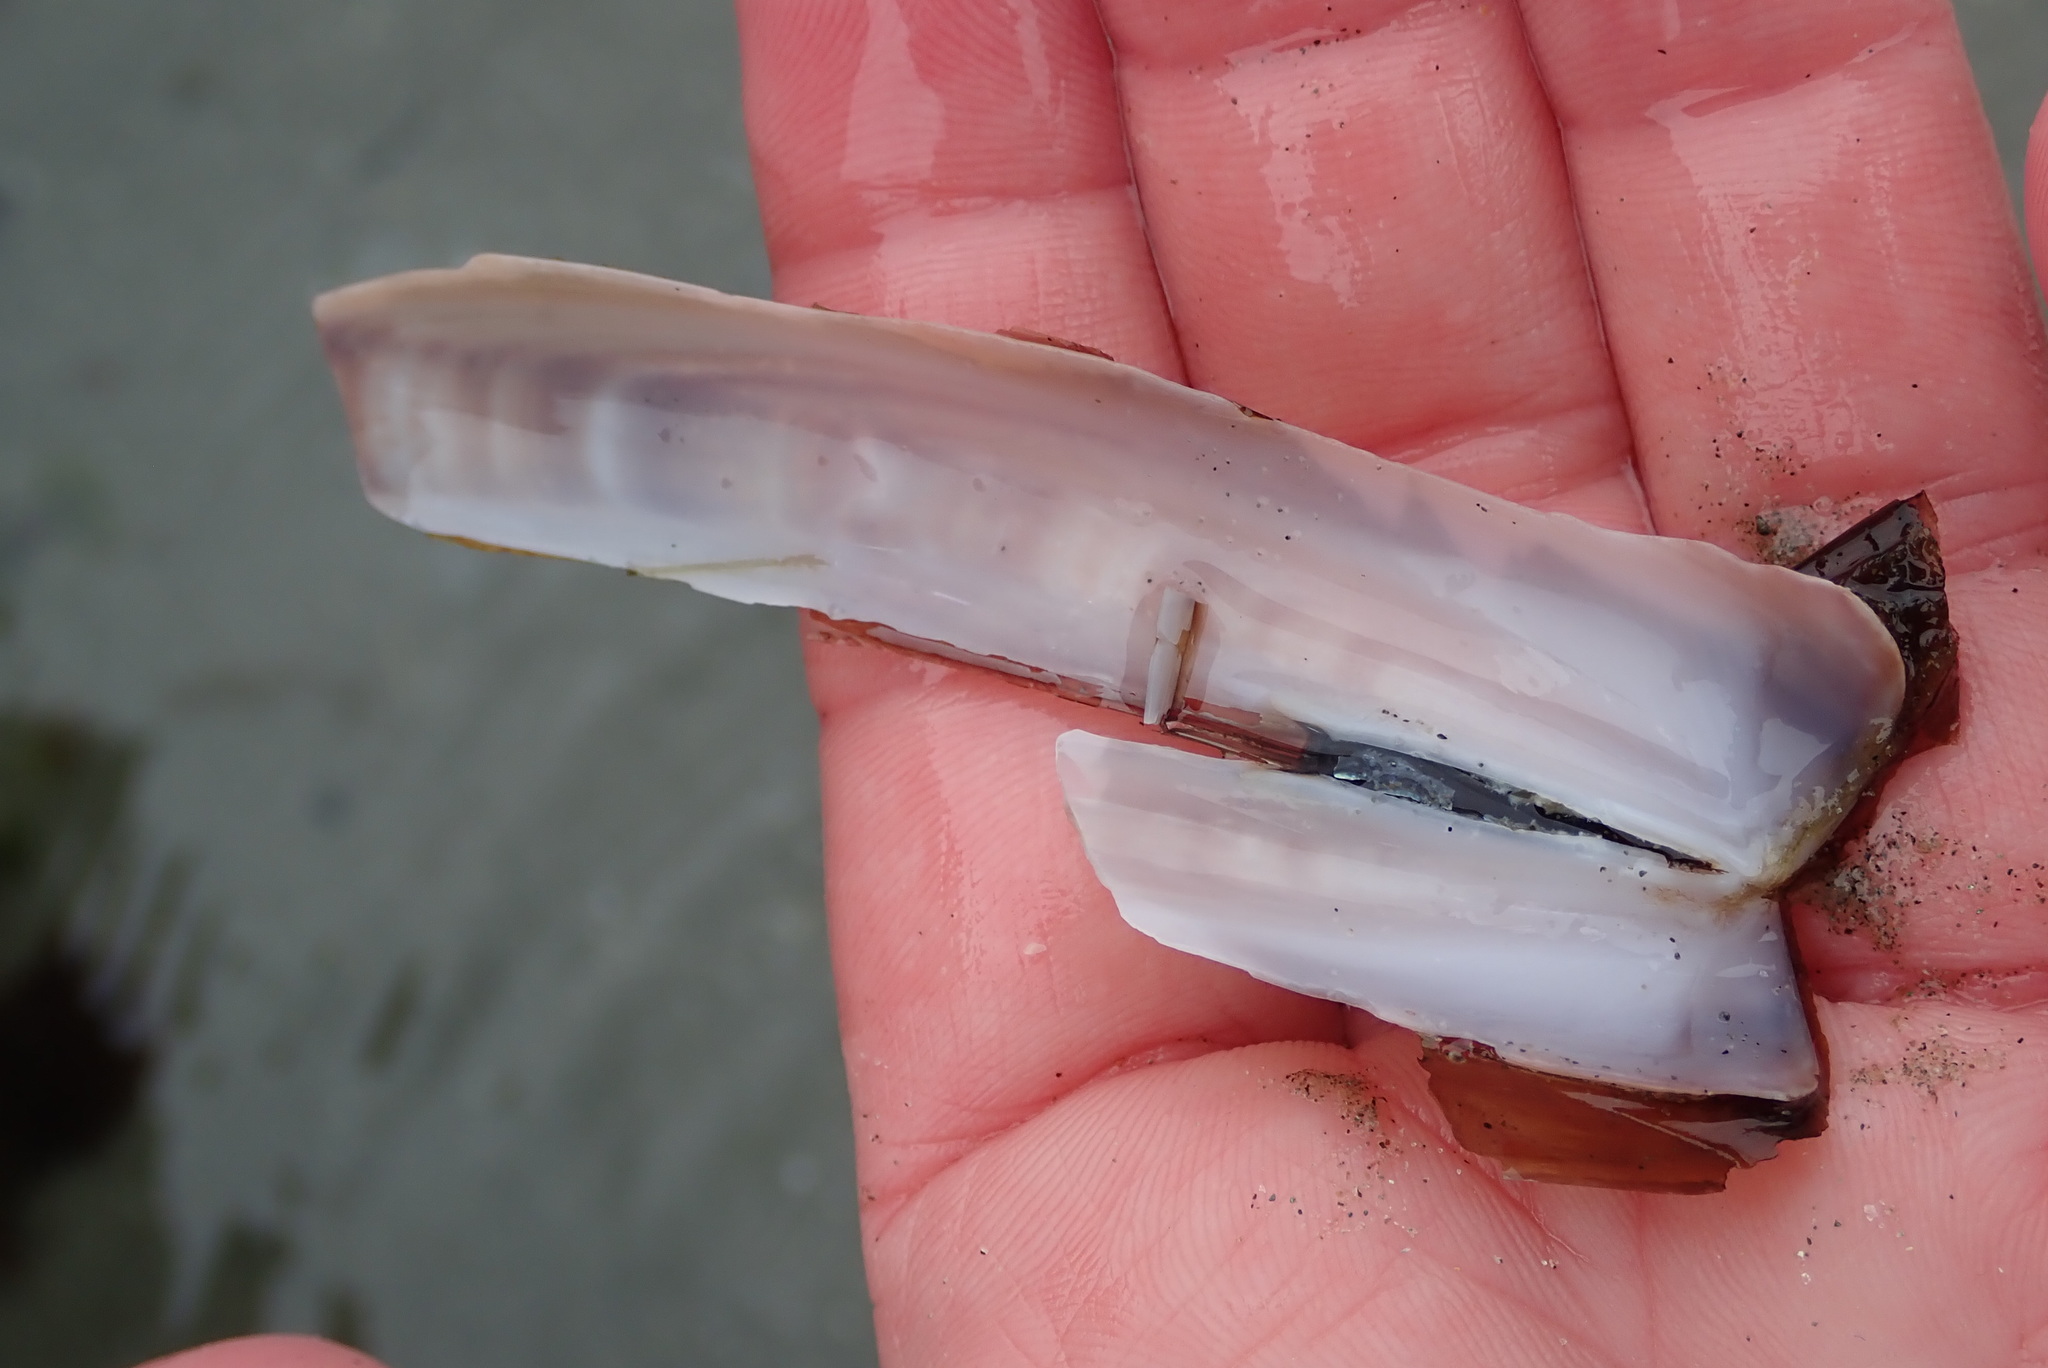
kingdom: Animalia
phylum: Mollusca
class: Bivalvia
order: Adapedonta
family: Pharidae
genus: Ensis
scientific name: Ensis leei
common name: American jack knife clam
